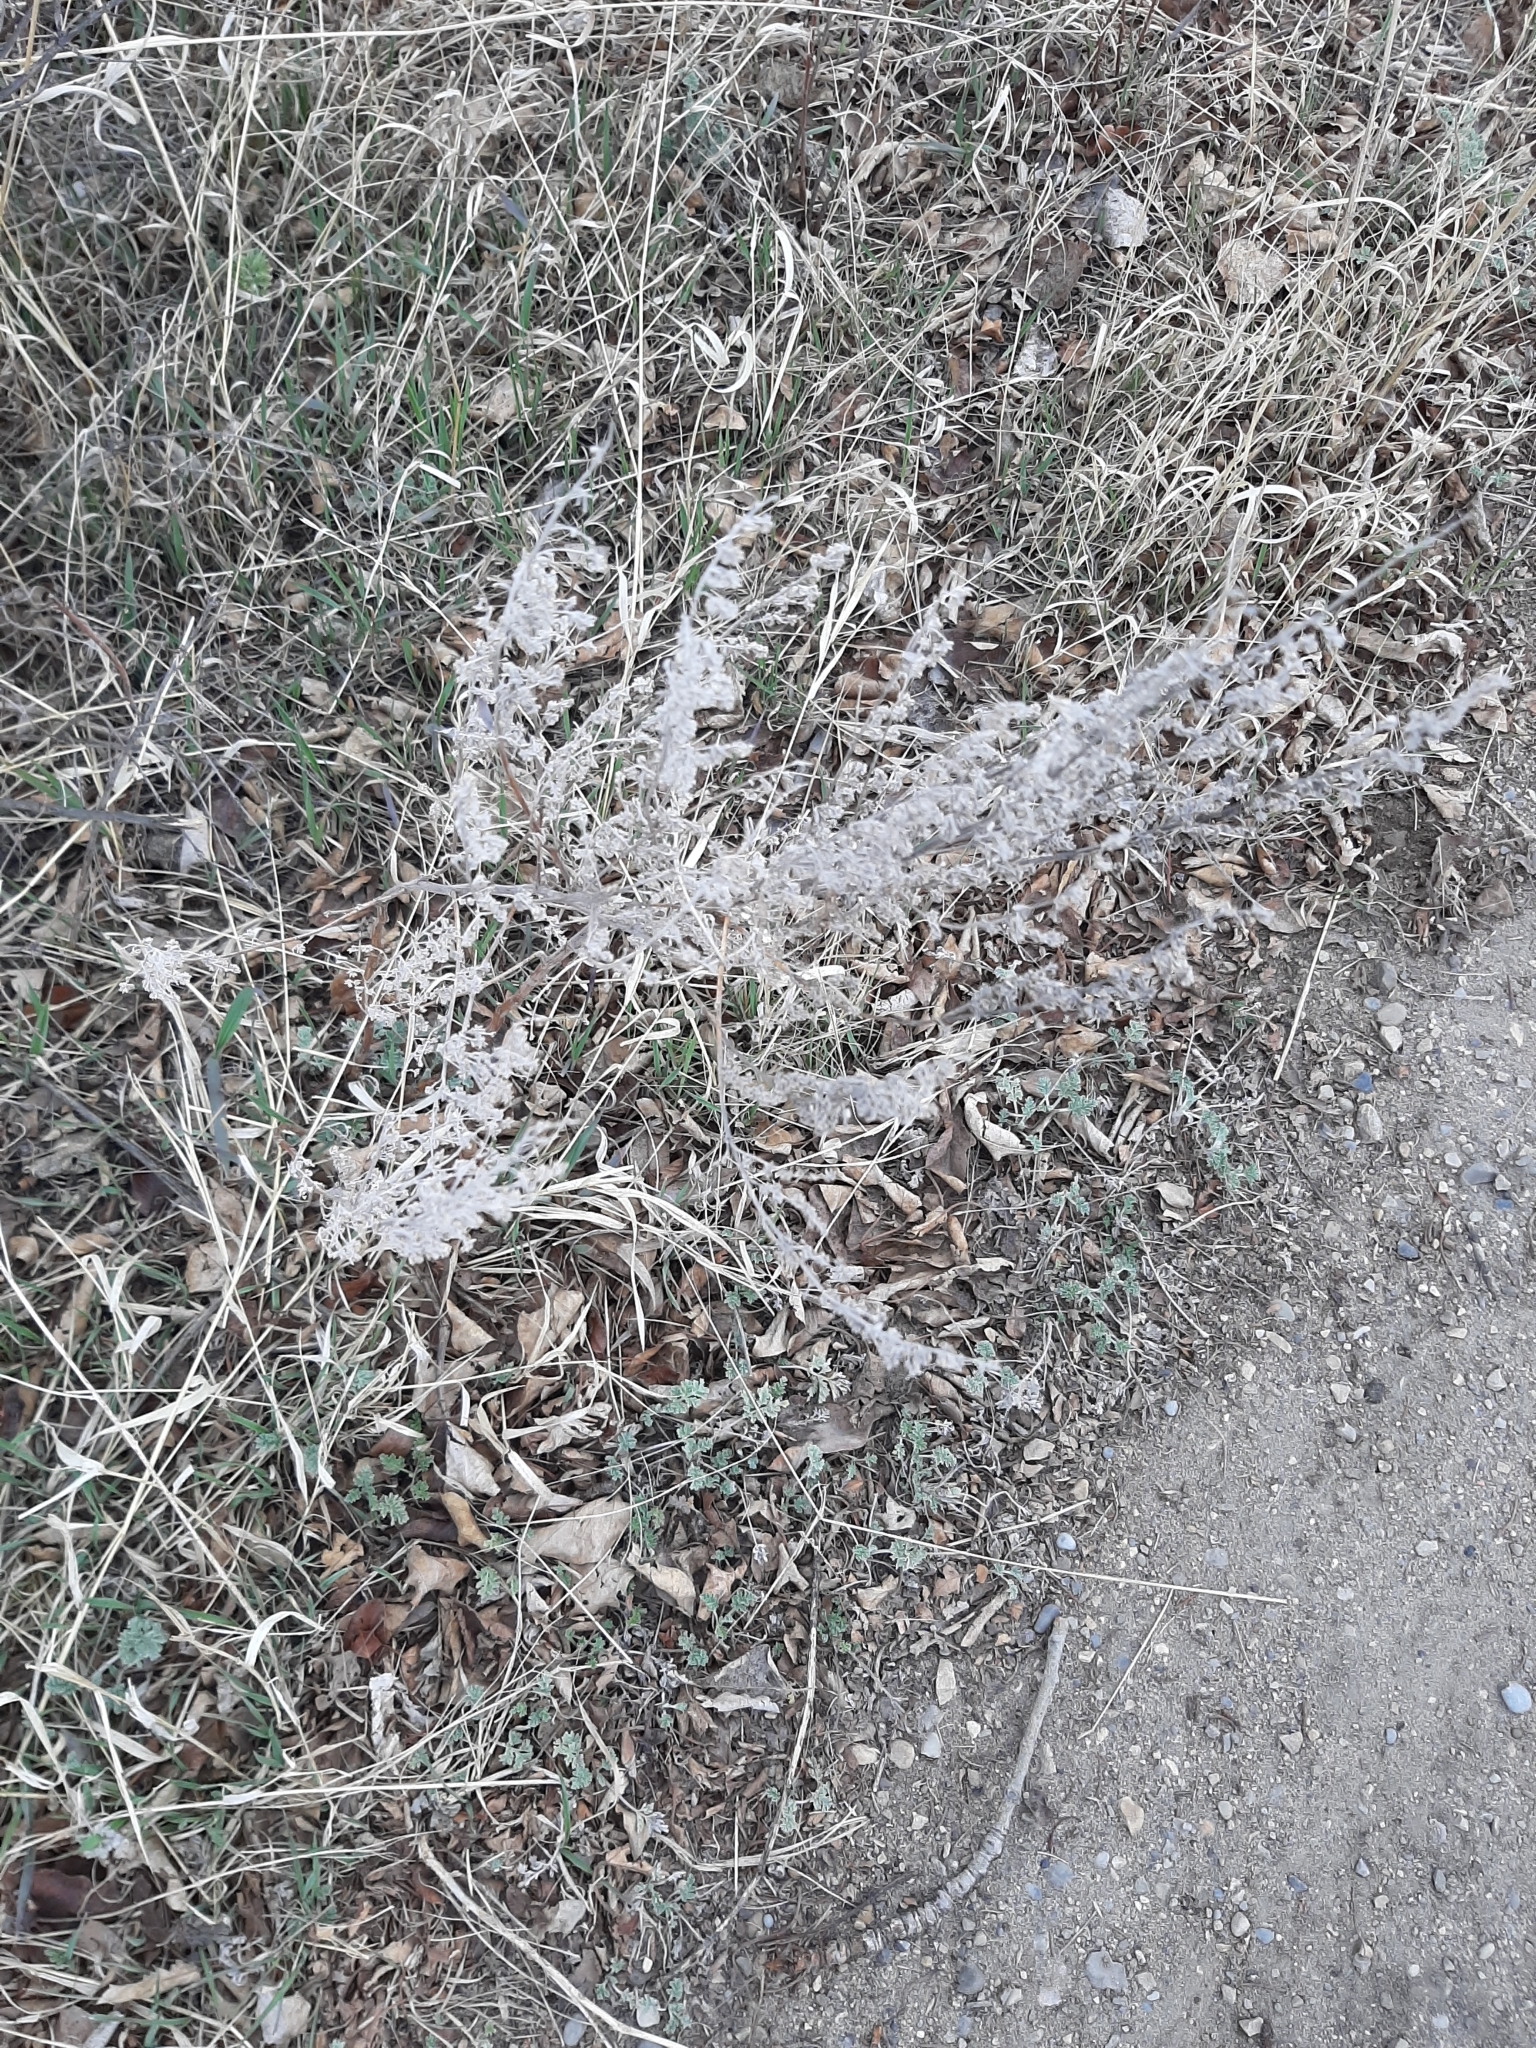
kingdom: Plantae
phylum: Tracheophyta
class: Magnoliopsida
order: Asterales
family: Asteraceae
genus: Artemisia
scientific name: Artemisia absinthium
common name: Wormwood
